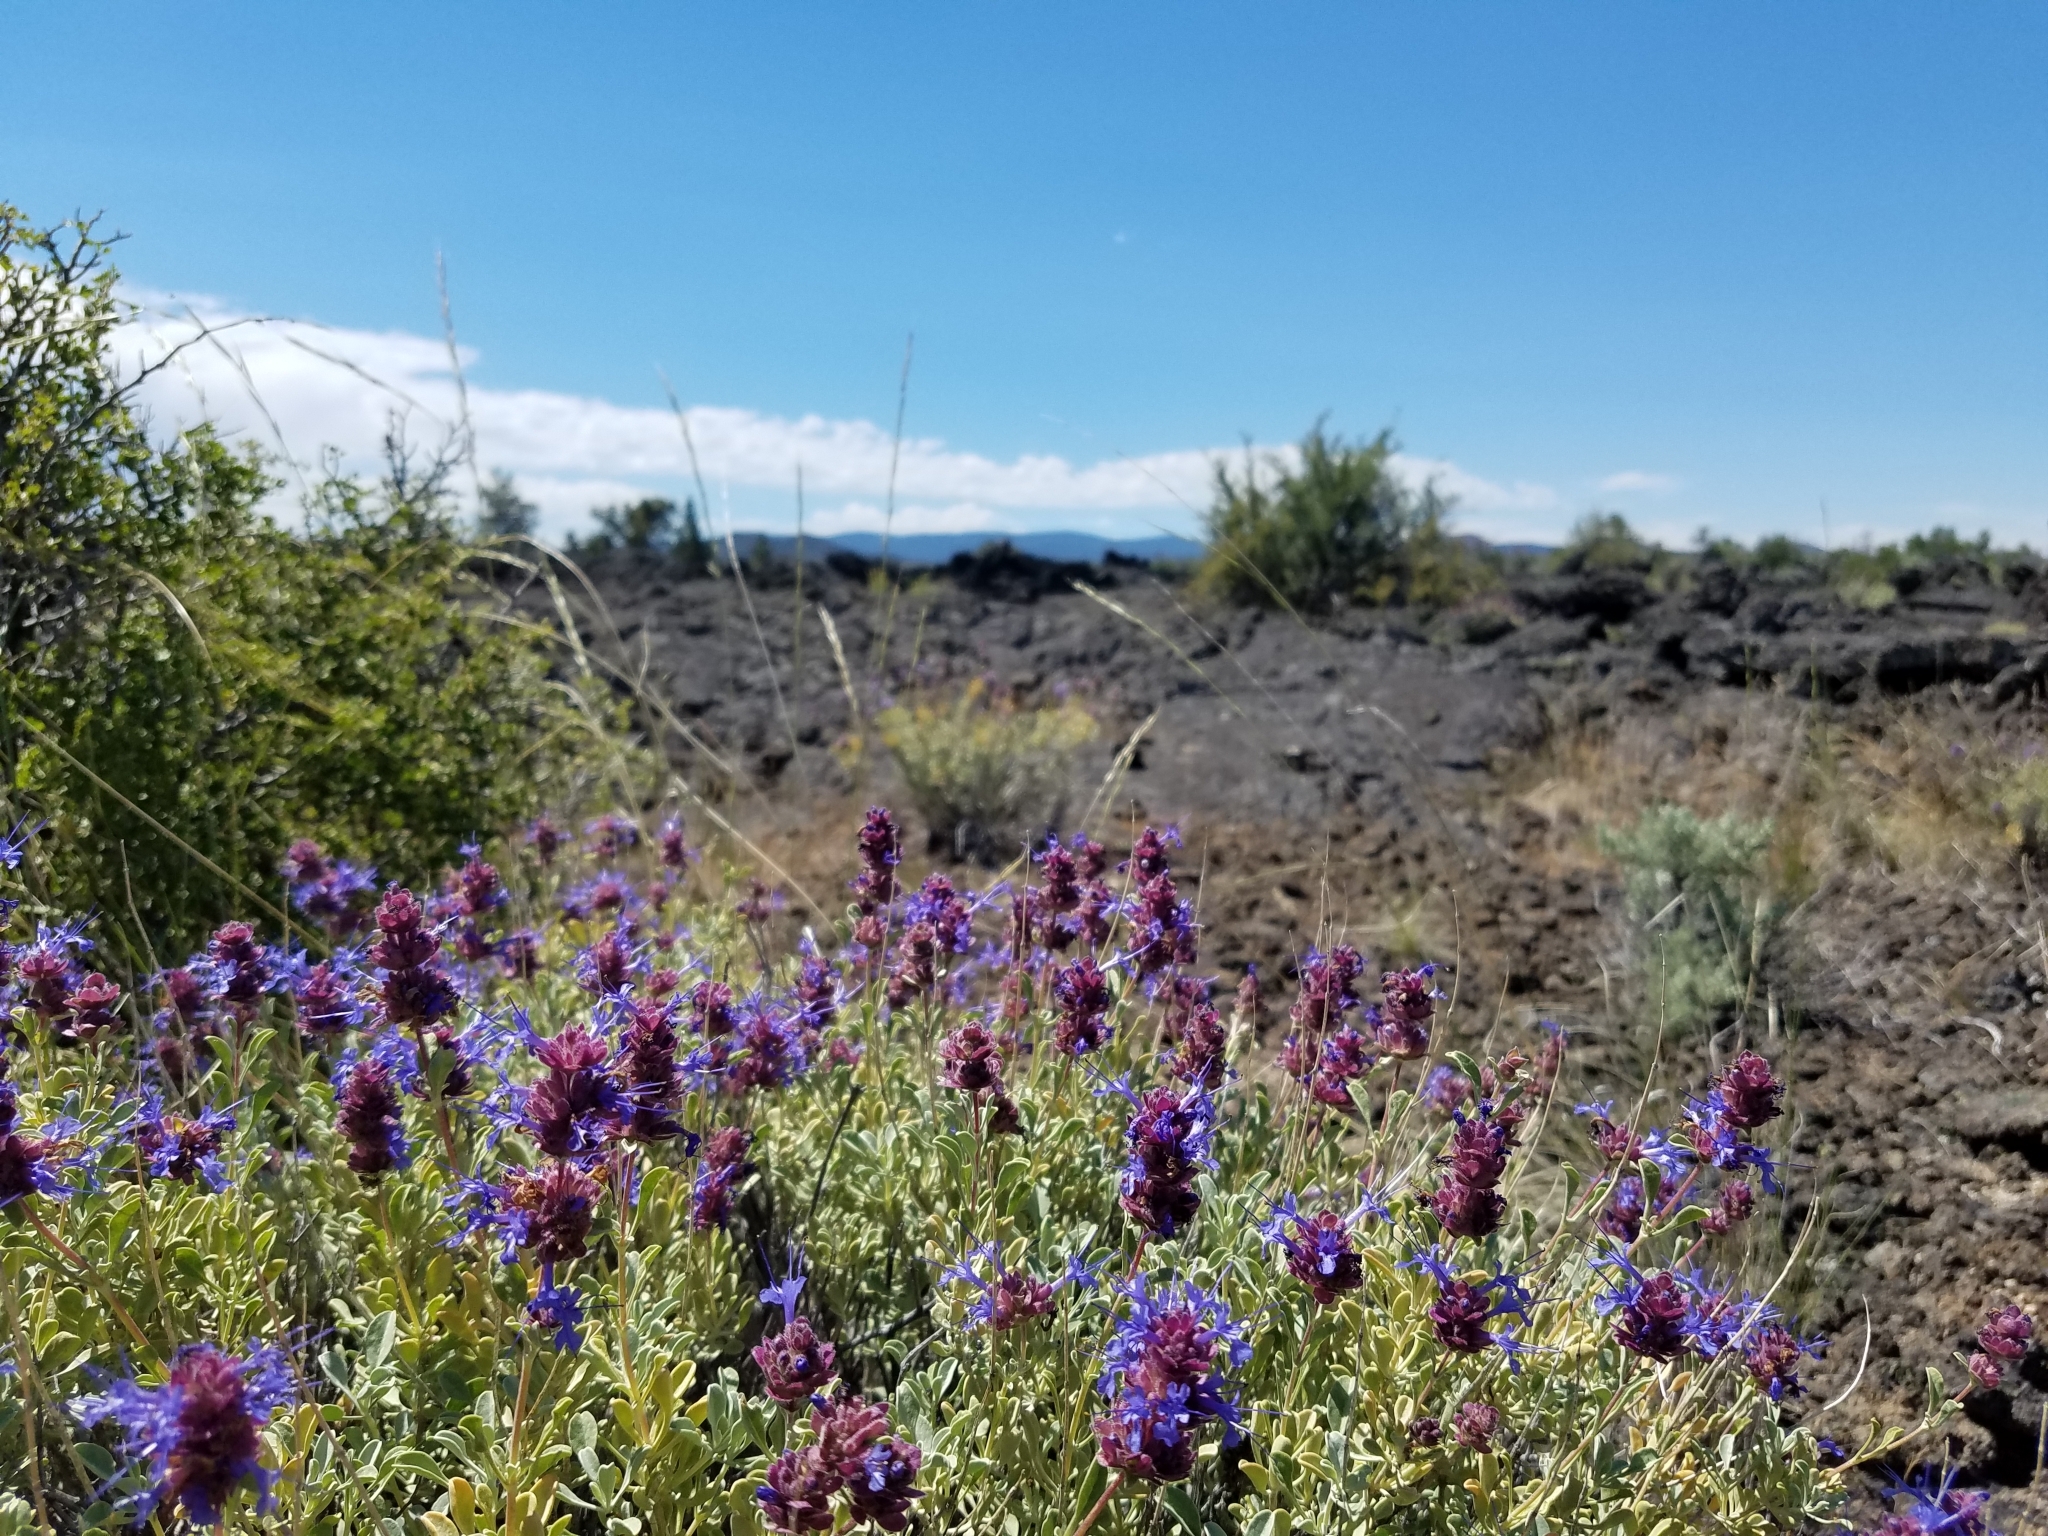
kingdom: Plantae
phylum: Tracheophyta
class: Magnoliopsida
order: Lamiales
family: Lamiaceae
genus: Salvia
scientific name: Salvia dorrii
